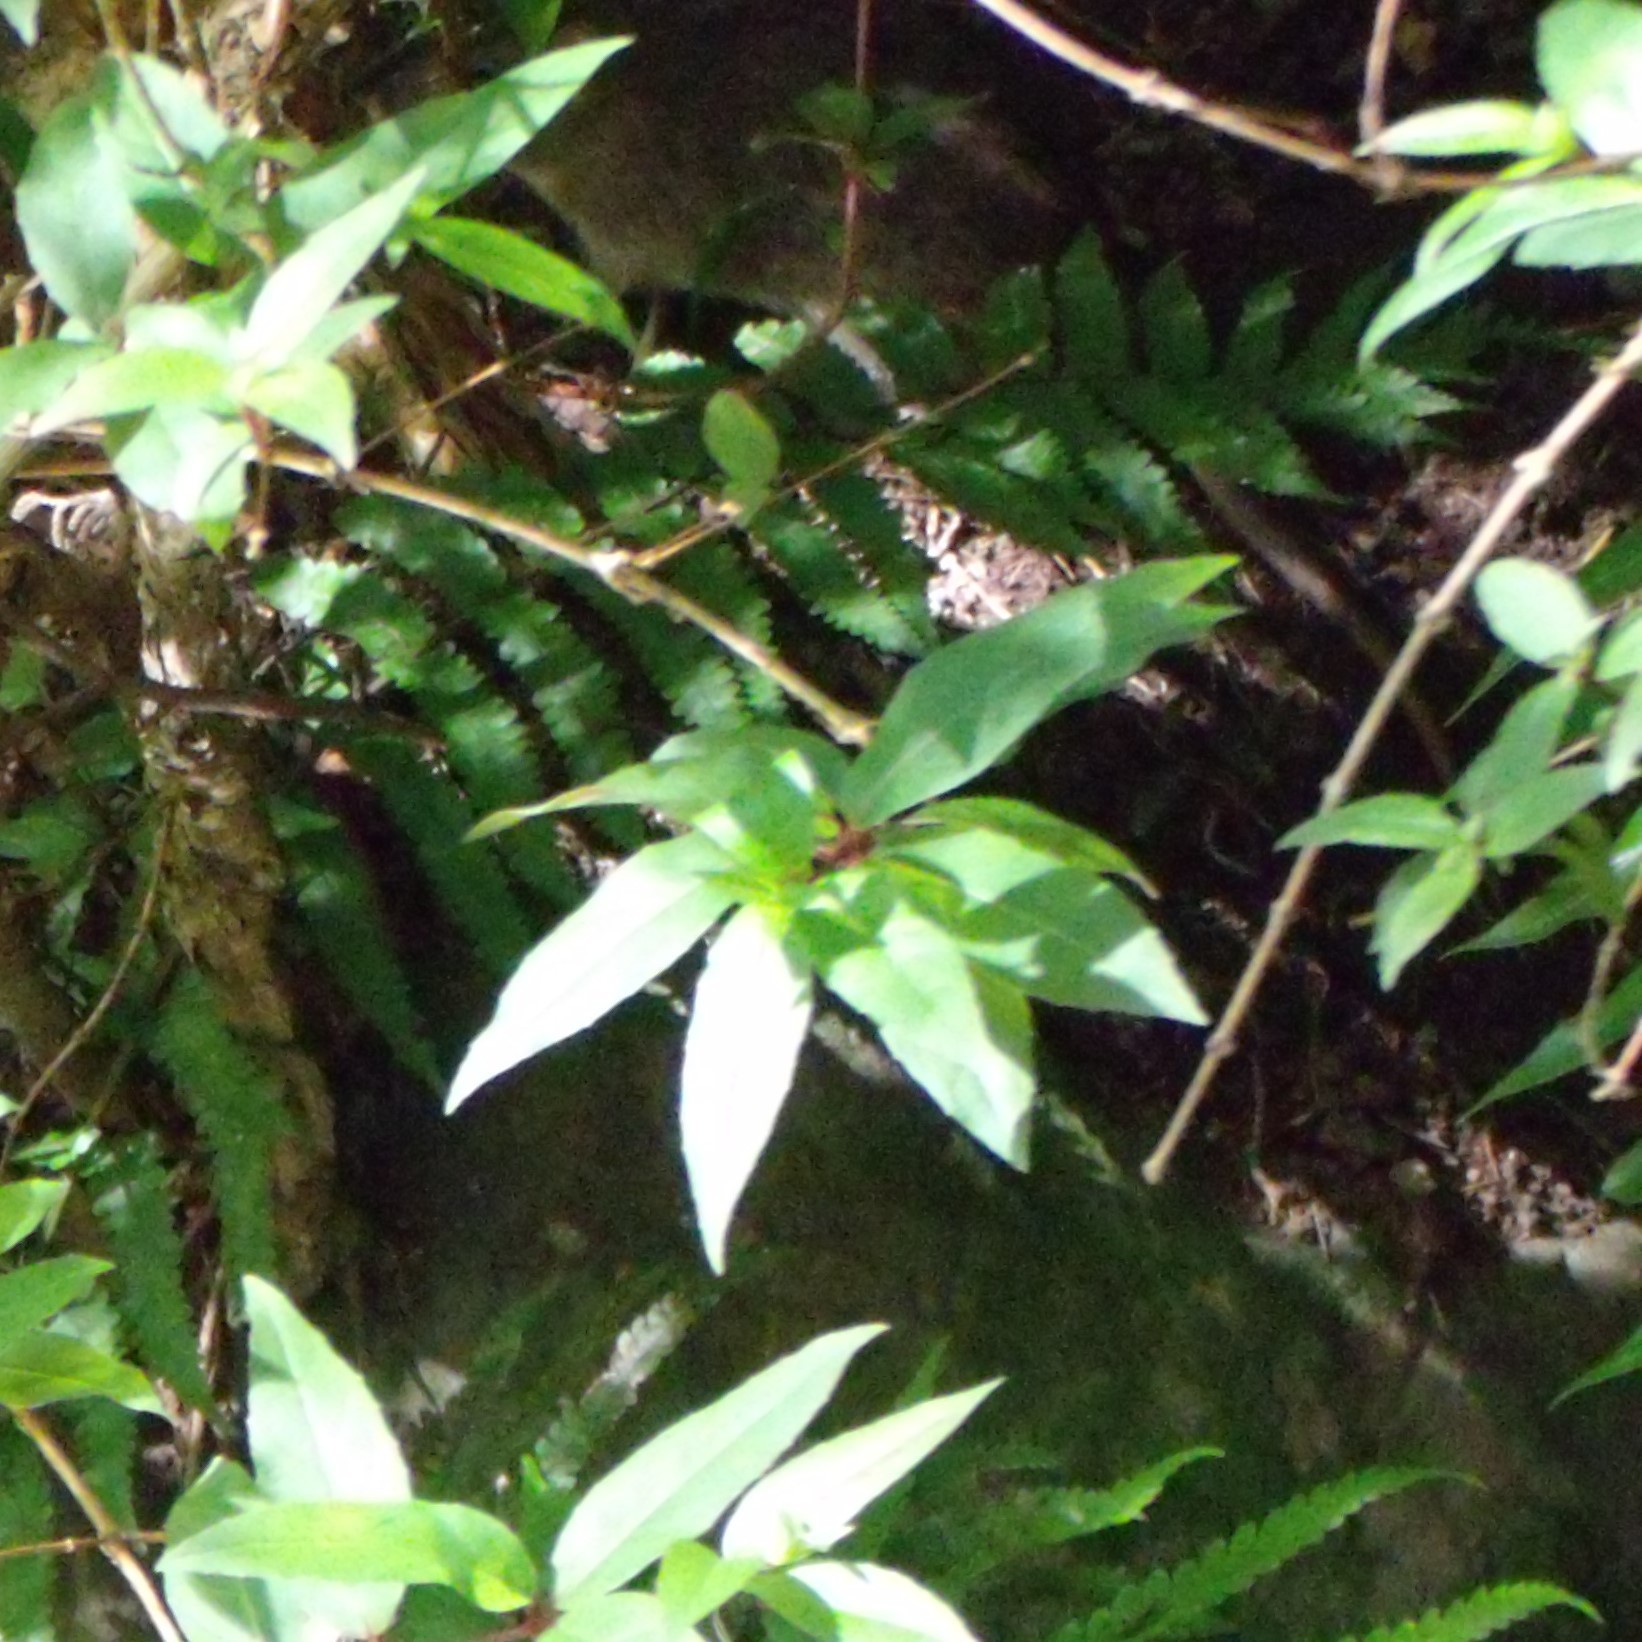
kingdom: Animalia
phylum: Chordata
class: Mammalia
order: Rodentia
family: Muridae
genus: Rattus
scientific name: Rattus norvegicus
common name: Brown rat
